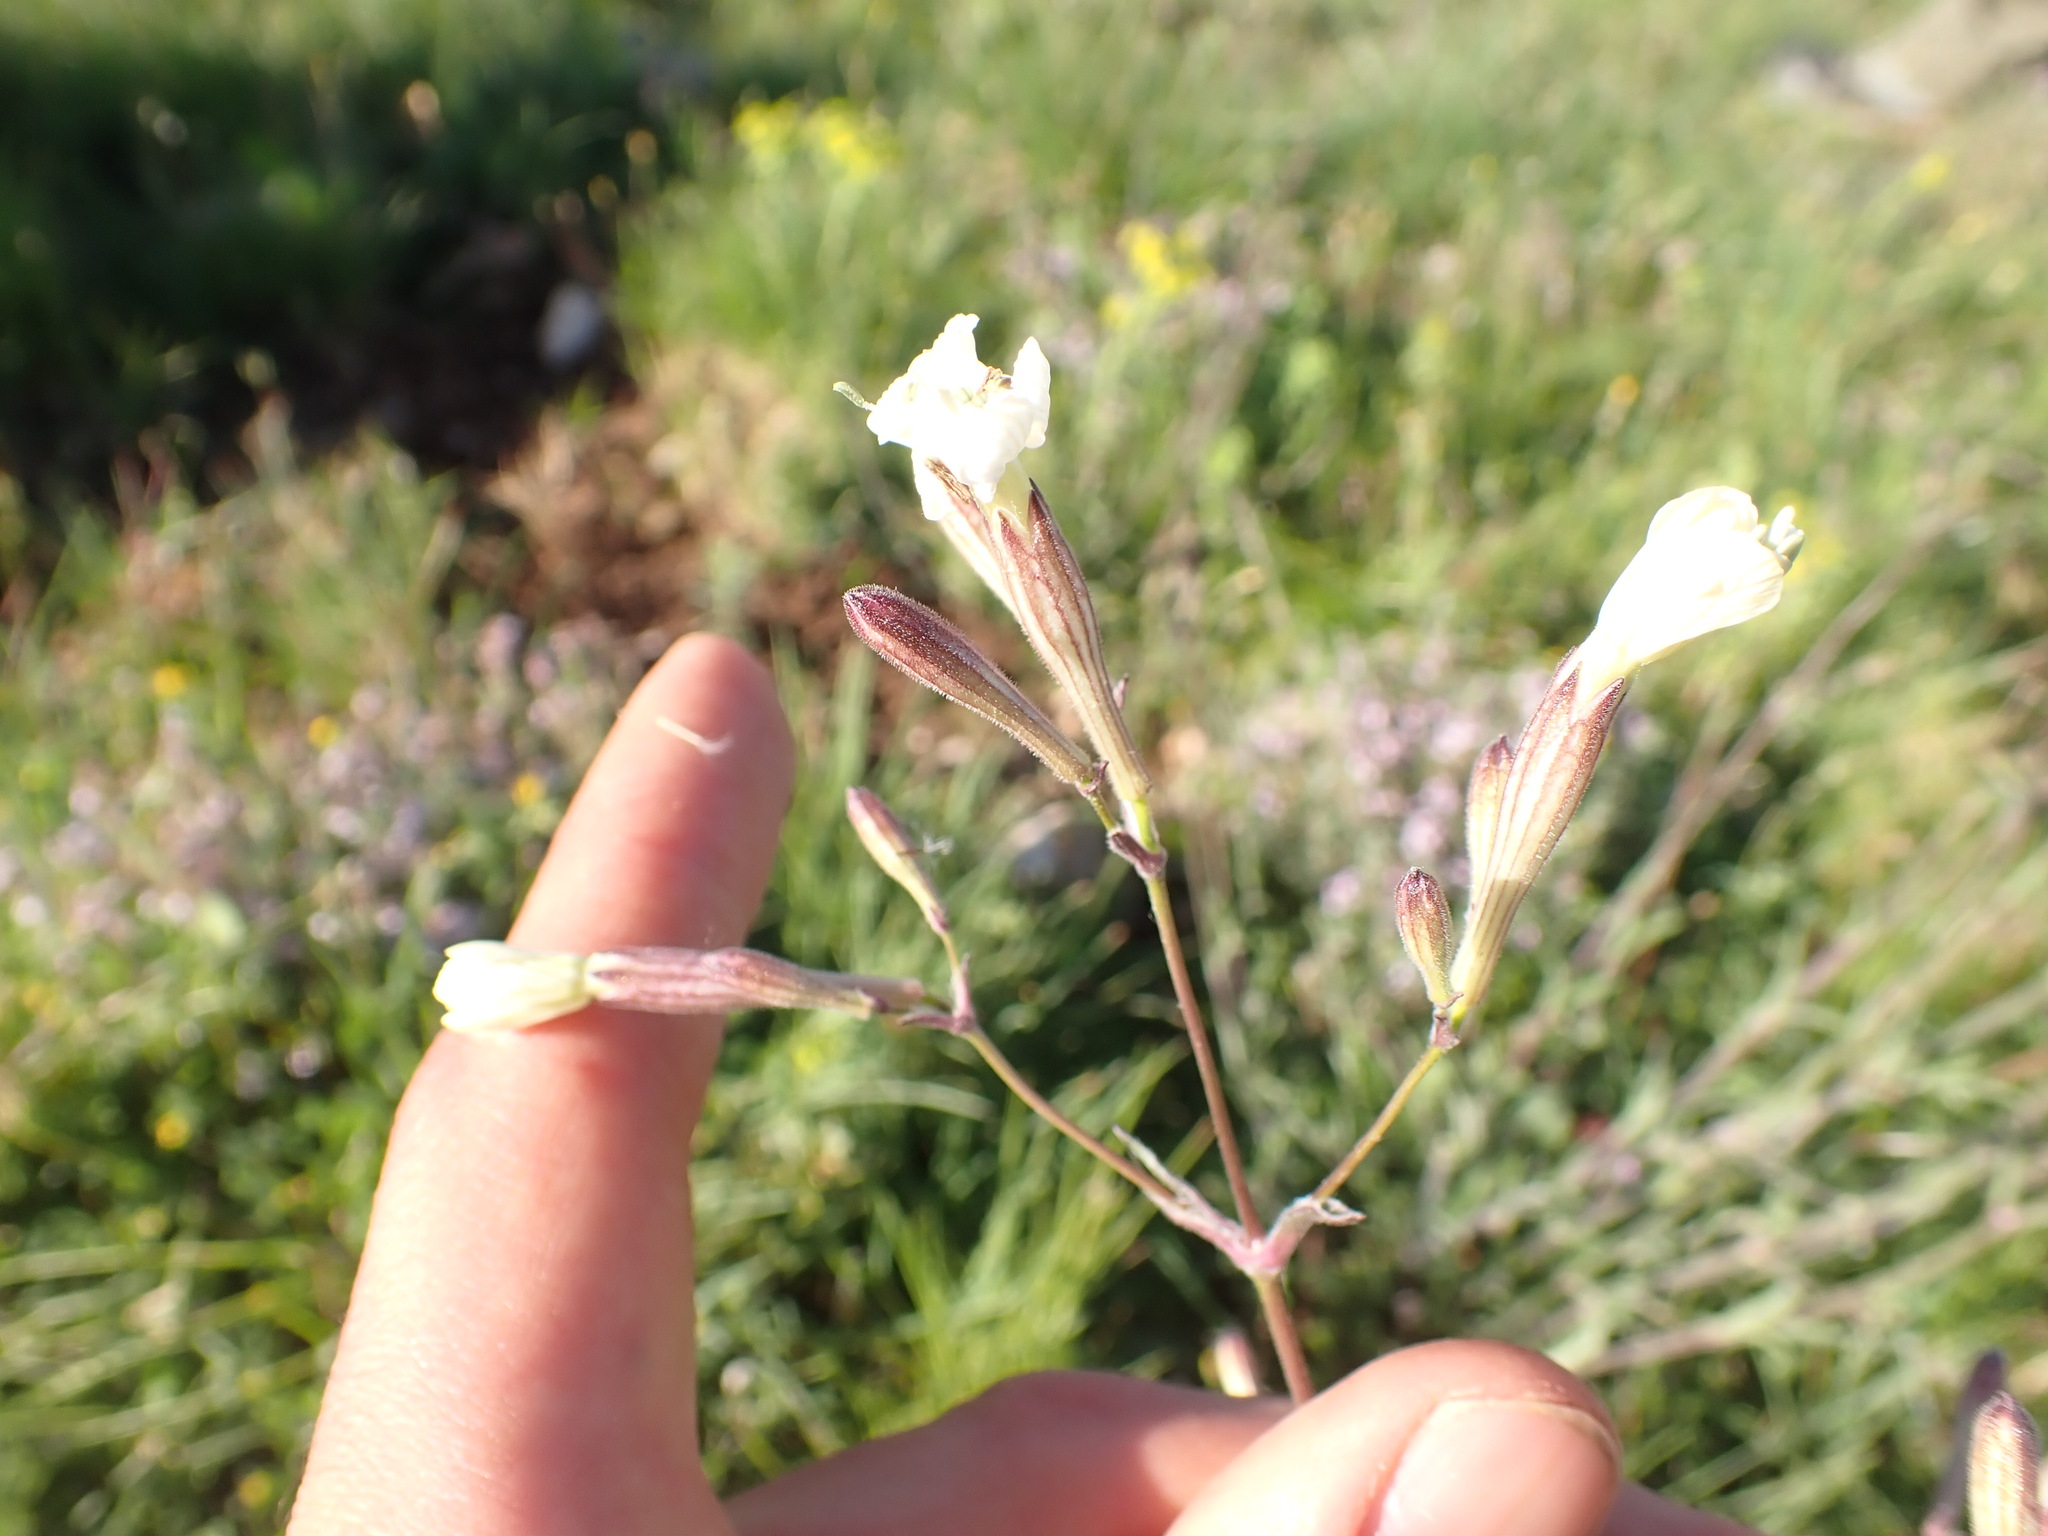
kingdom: Plantae
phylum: Tracheophyta
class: Liliopsida
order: Asparagales
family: Asphodelaceae
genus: Asphodelus
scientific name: Asphodelus cerasifer
